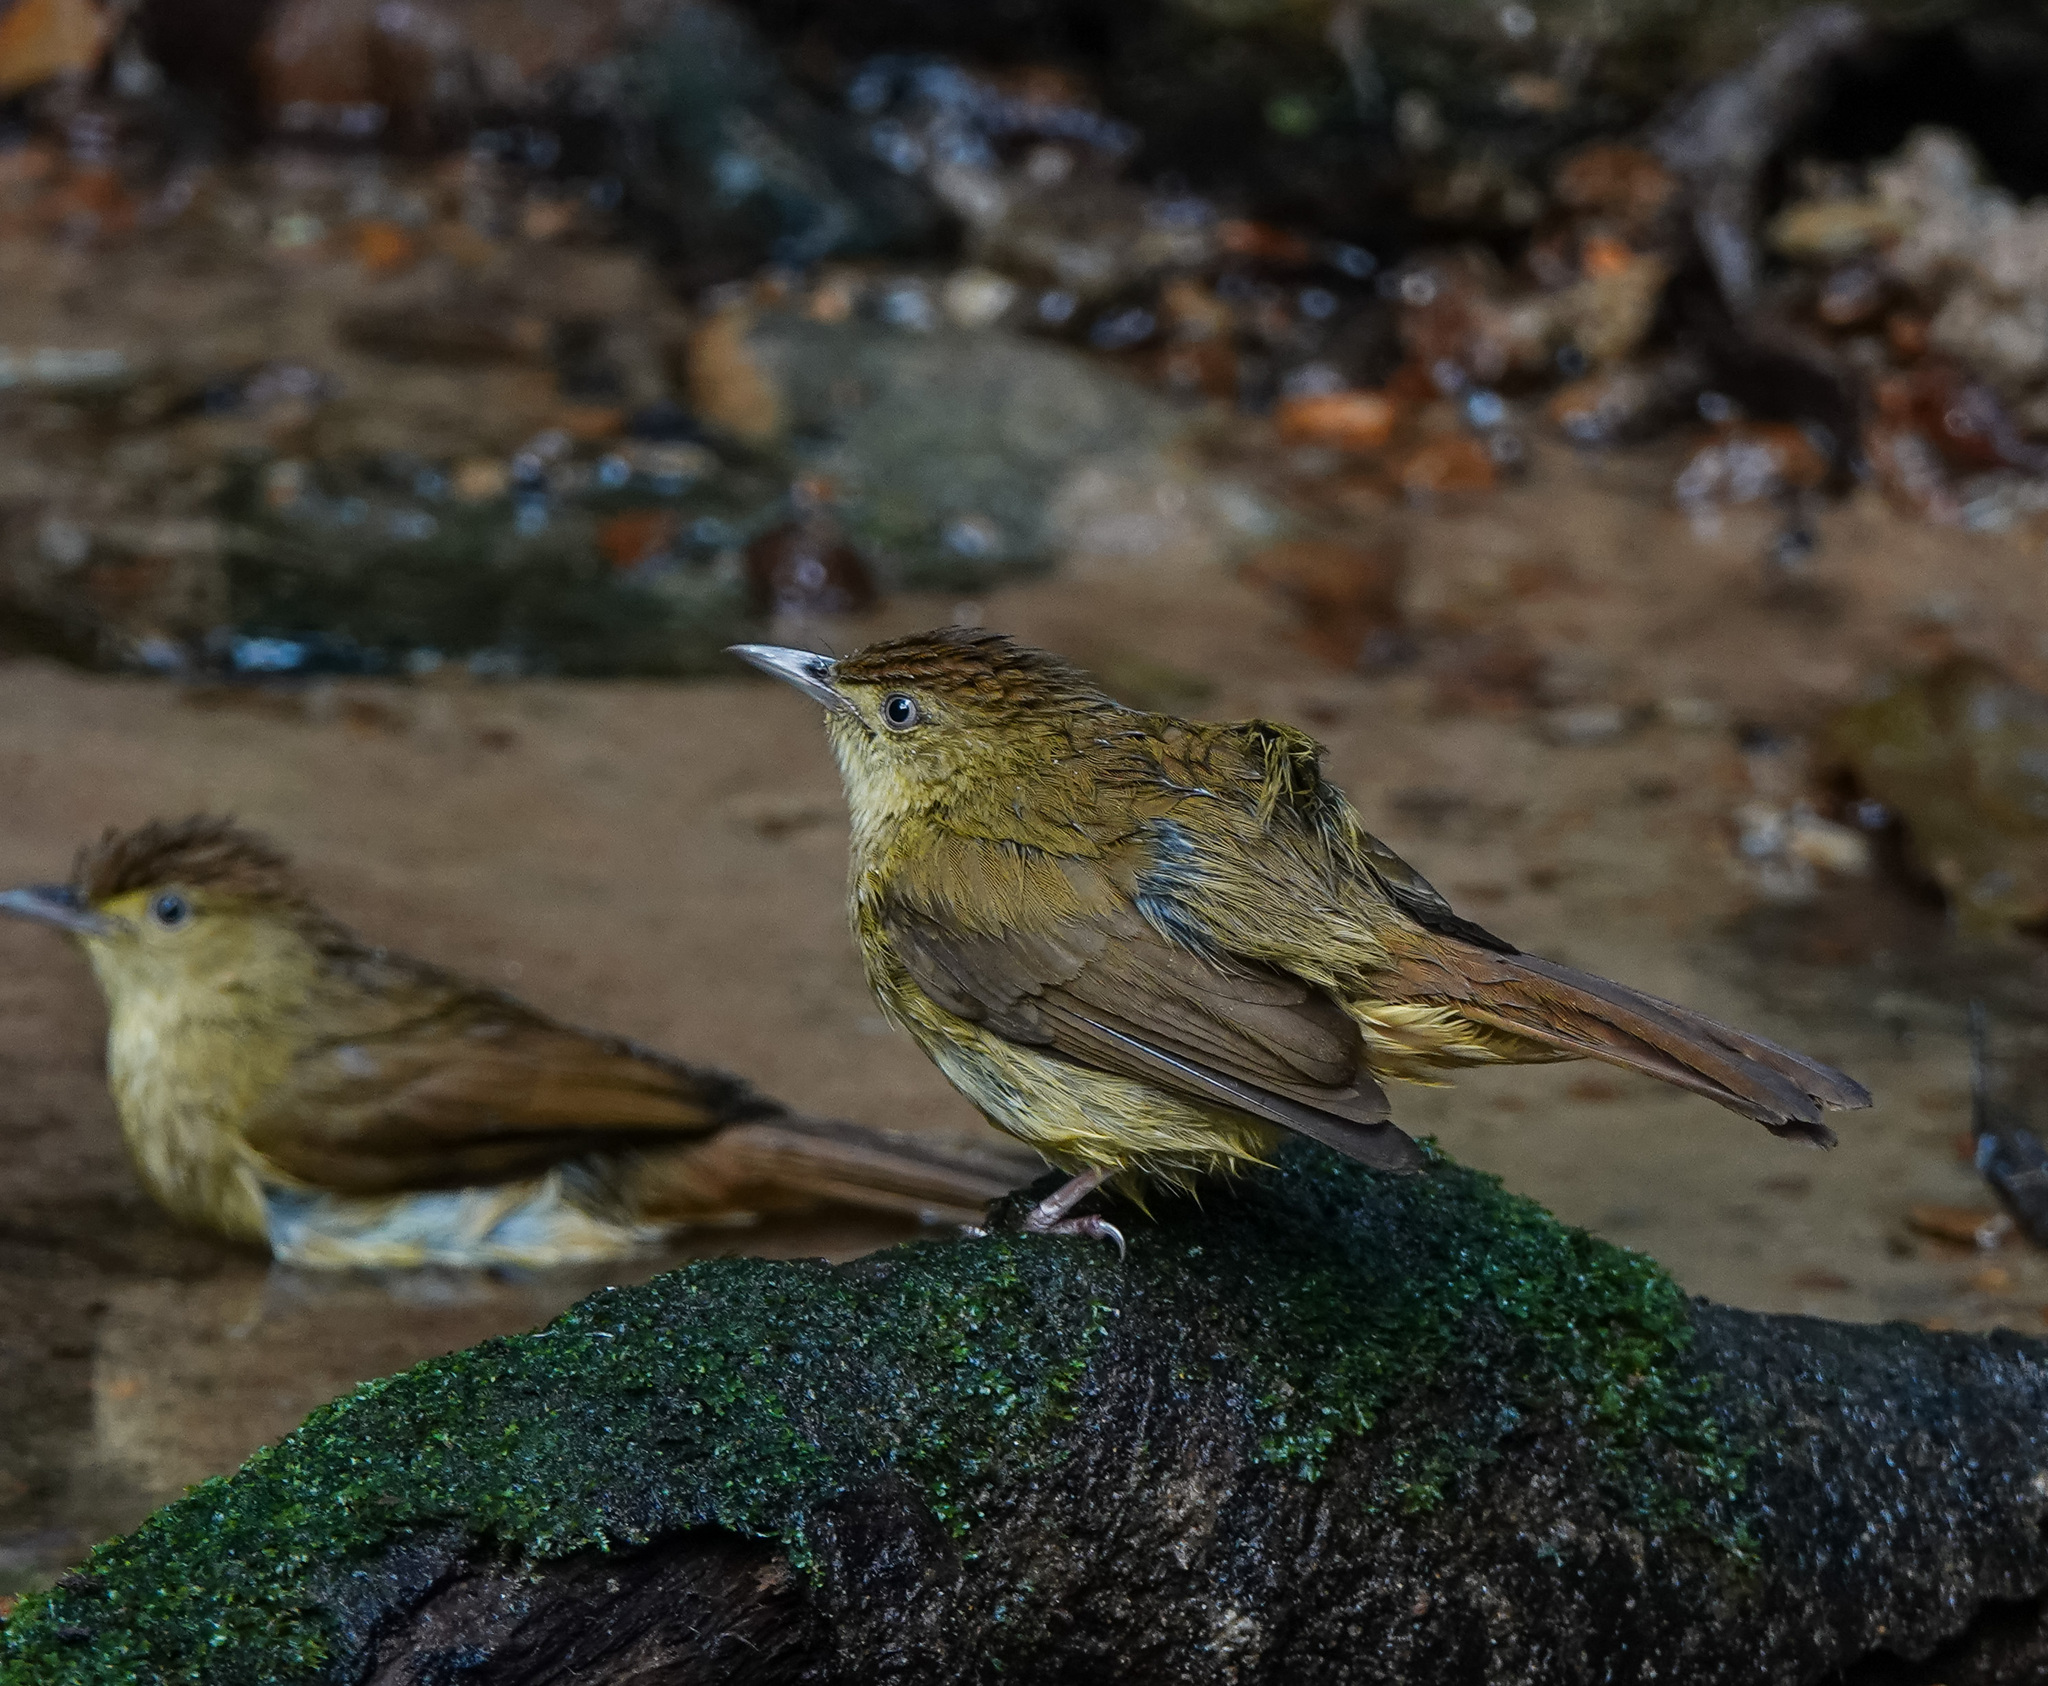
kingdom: Animalia
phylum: Chordata
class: Aves
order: Passeriformes
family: Pycnonotidae
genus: Iole
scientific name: Iole virescens
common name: Olive bulbul
